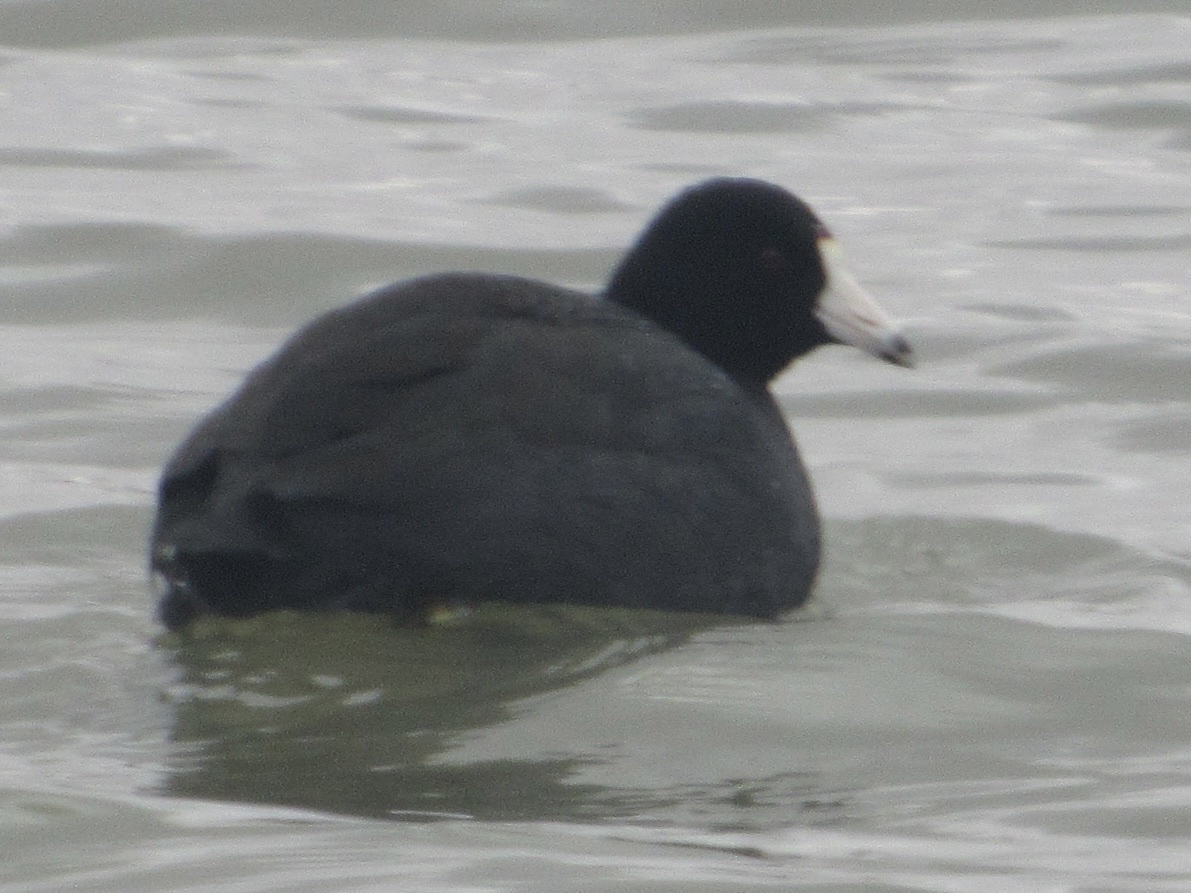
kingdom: Animalia
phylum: Chordata
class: Aves
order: Gruiformes
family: Rallidae
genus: Fulica
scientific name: Fulica americana
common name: American coot
